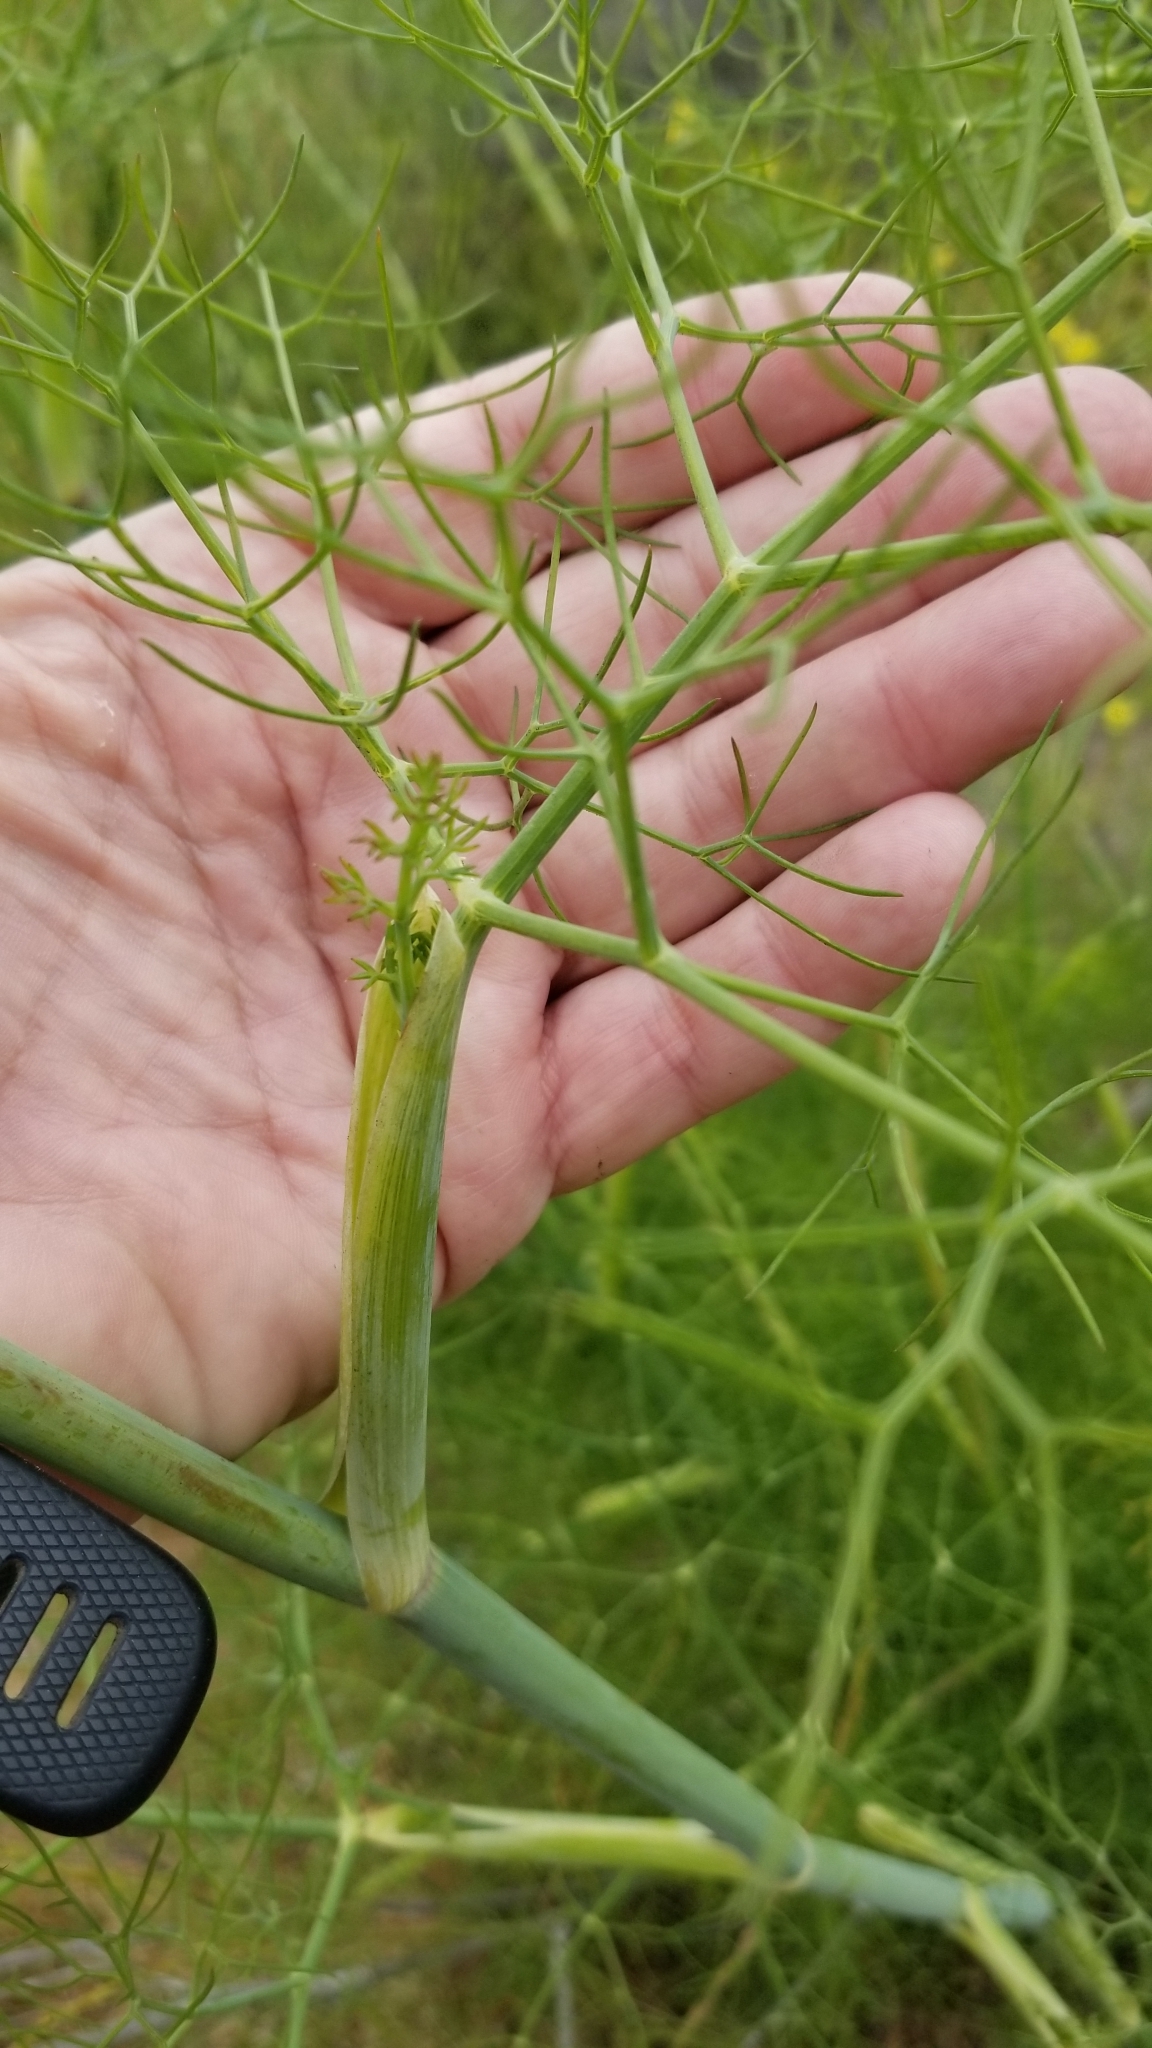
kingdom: Plantae
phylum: Tracheophyta
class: Magnoliopsida
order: Apiales
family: Apiaceae
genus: Foeniculum
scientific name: Foeniculum vulgare
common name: Fennel
